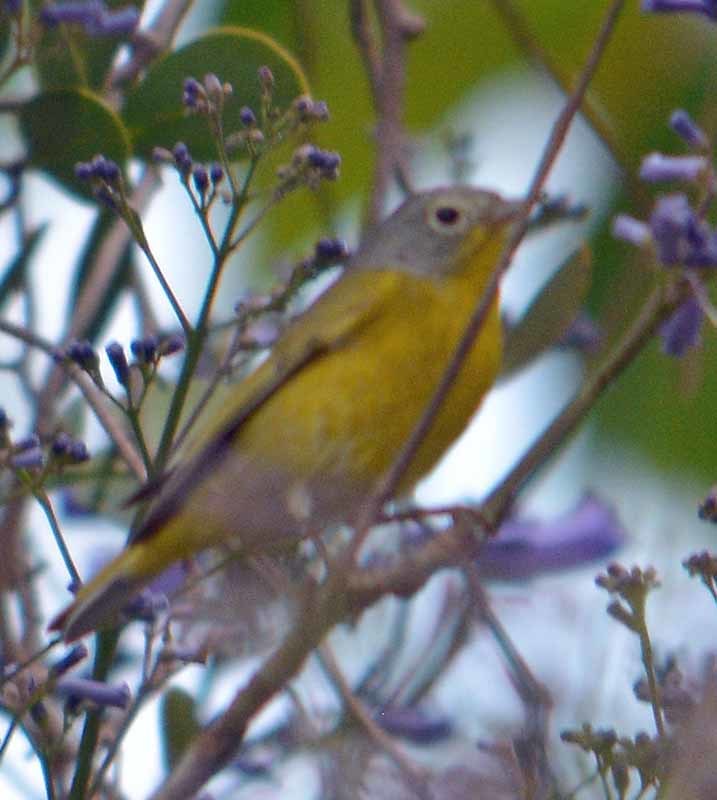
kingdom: Animalia
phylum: Chordata
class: Aves
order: Passeriformes
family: Parulidae
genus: Leiothlypis
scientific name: Leiothlypis ruficapilla
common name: Nashville warbler
